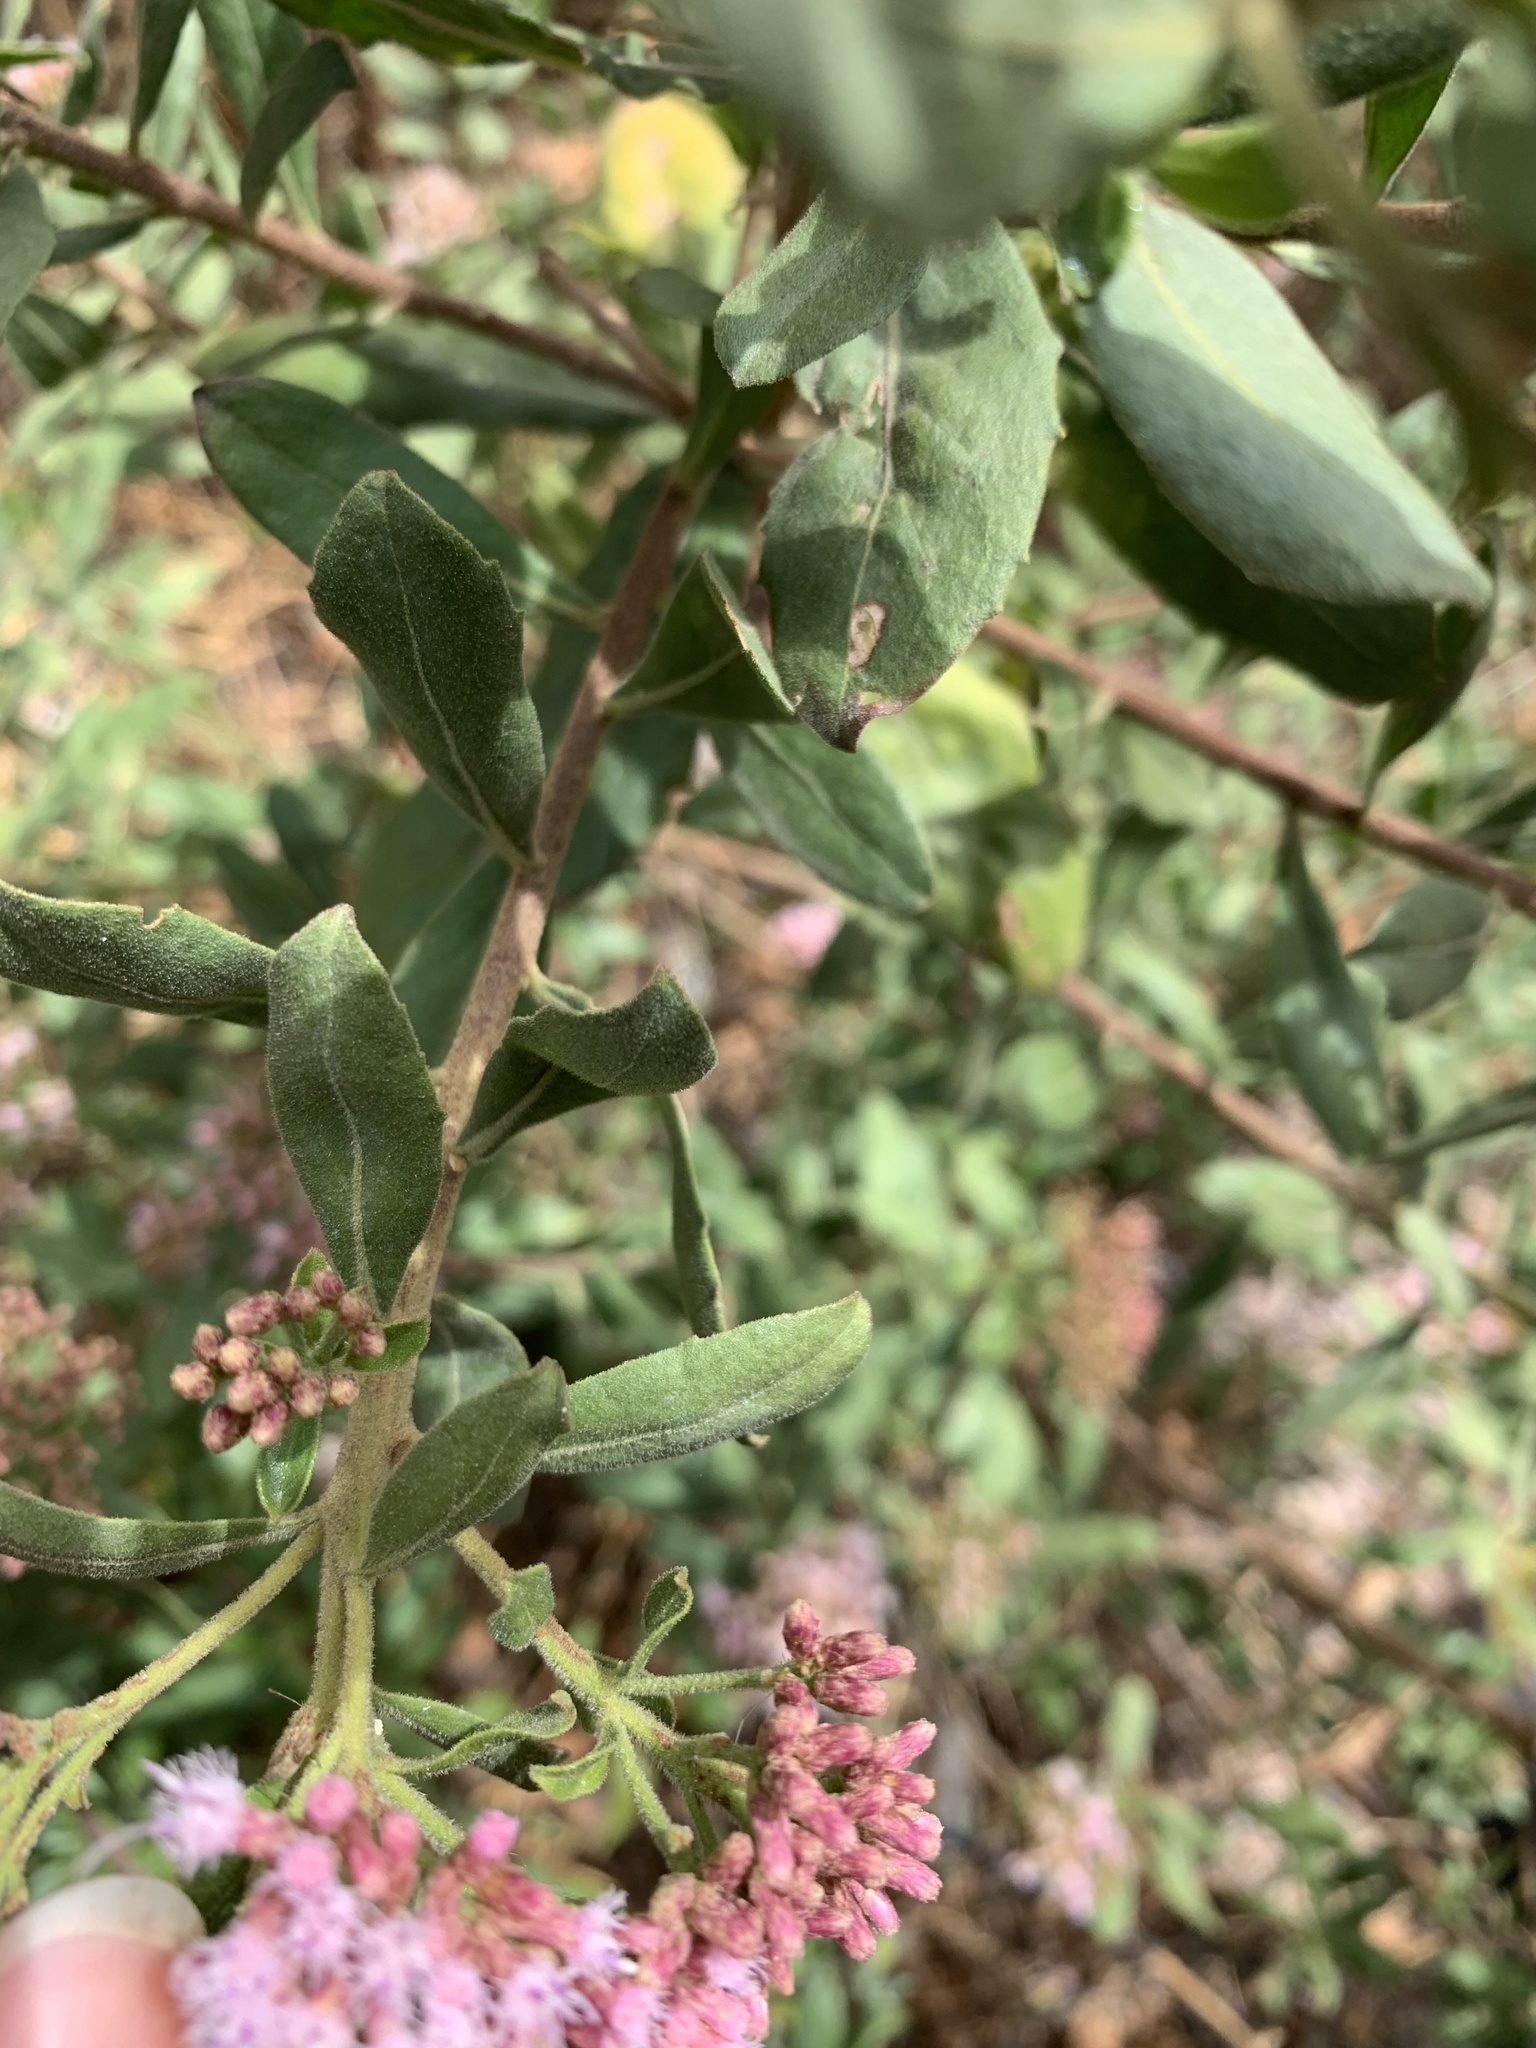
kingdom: Plantae
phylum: Tracheophyta
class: Magnoliopsida
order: Asterales
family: Asteraceae
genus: Pluchea
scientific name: Pluchea zamalloae
